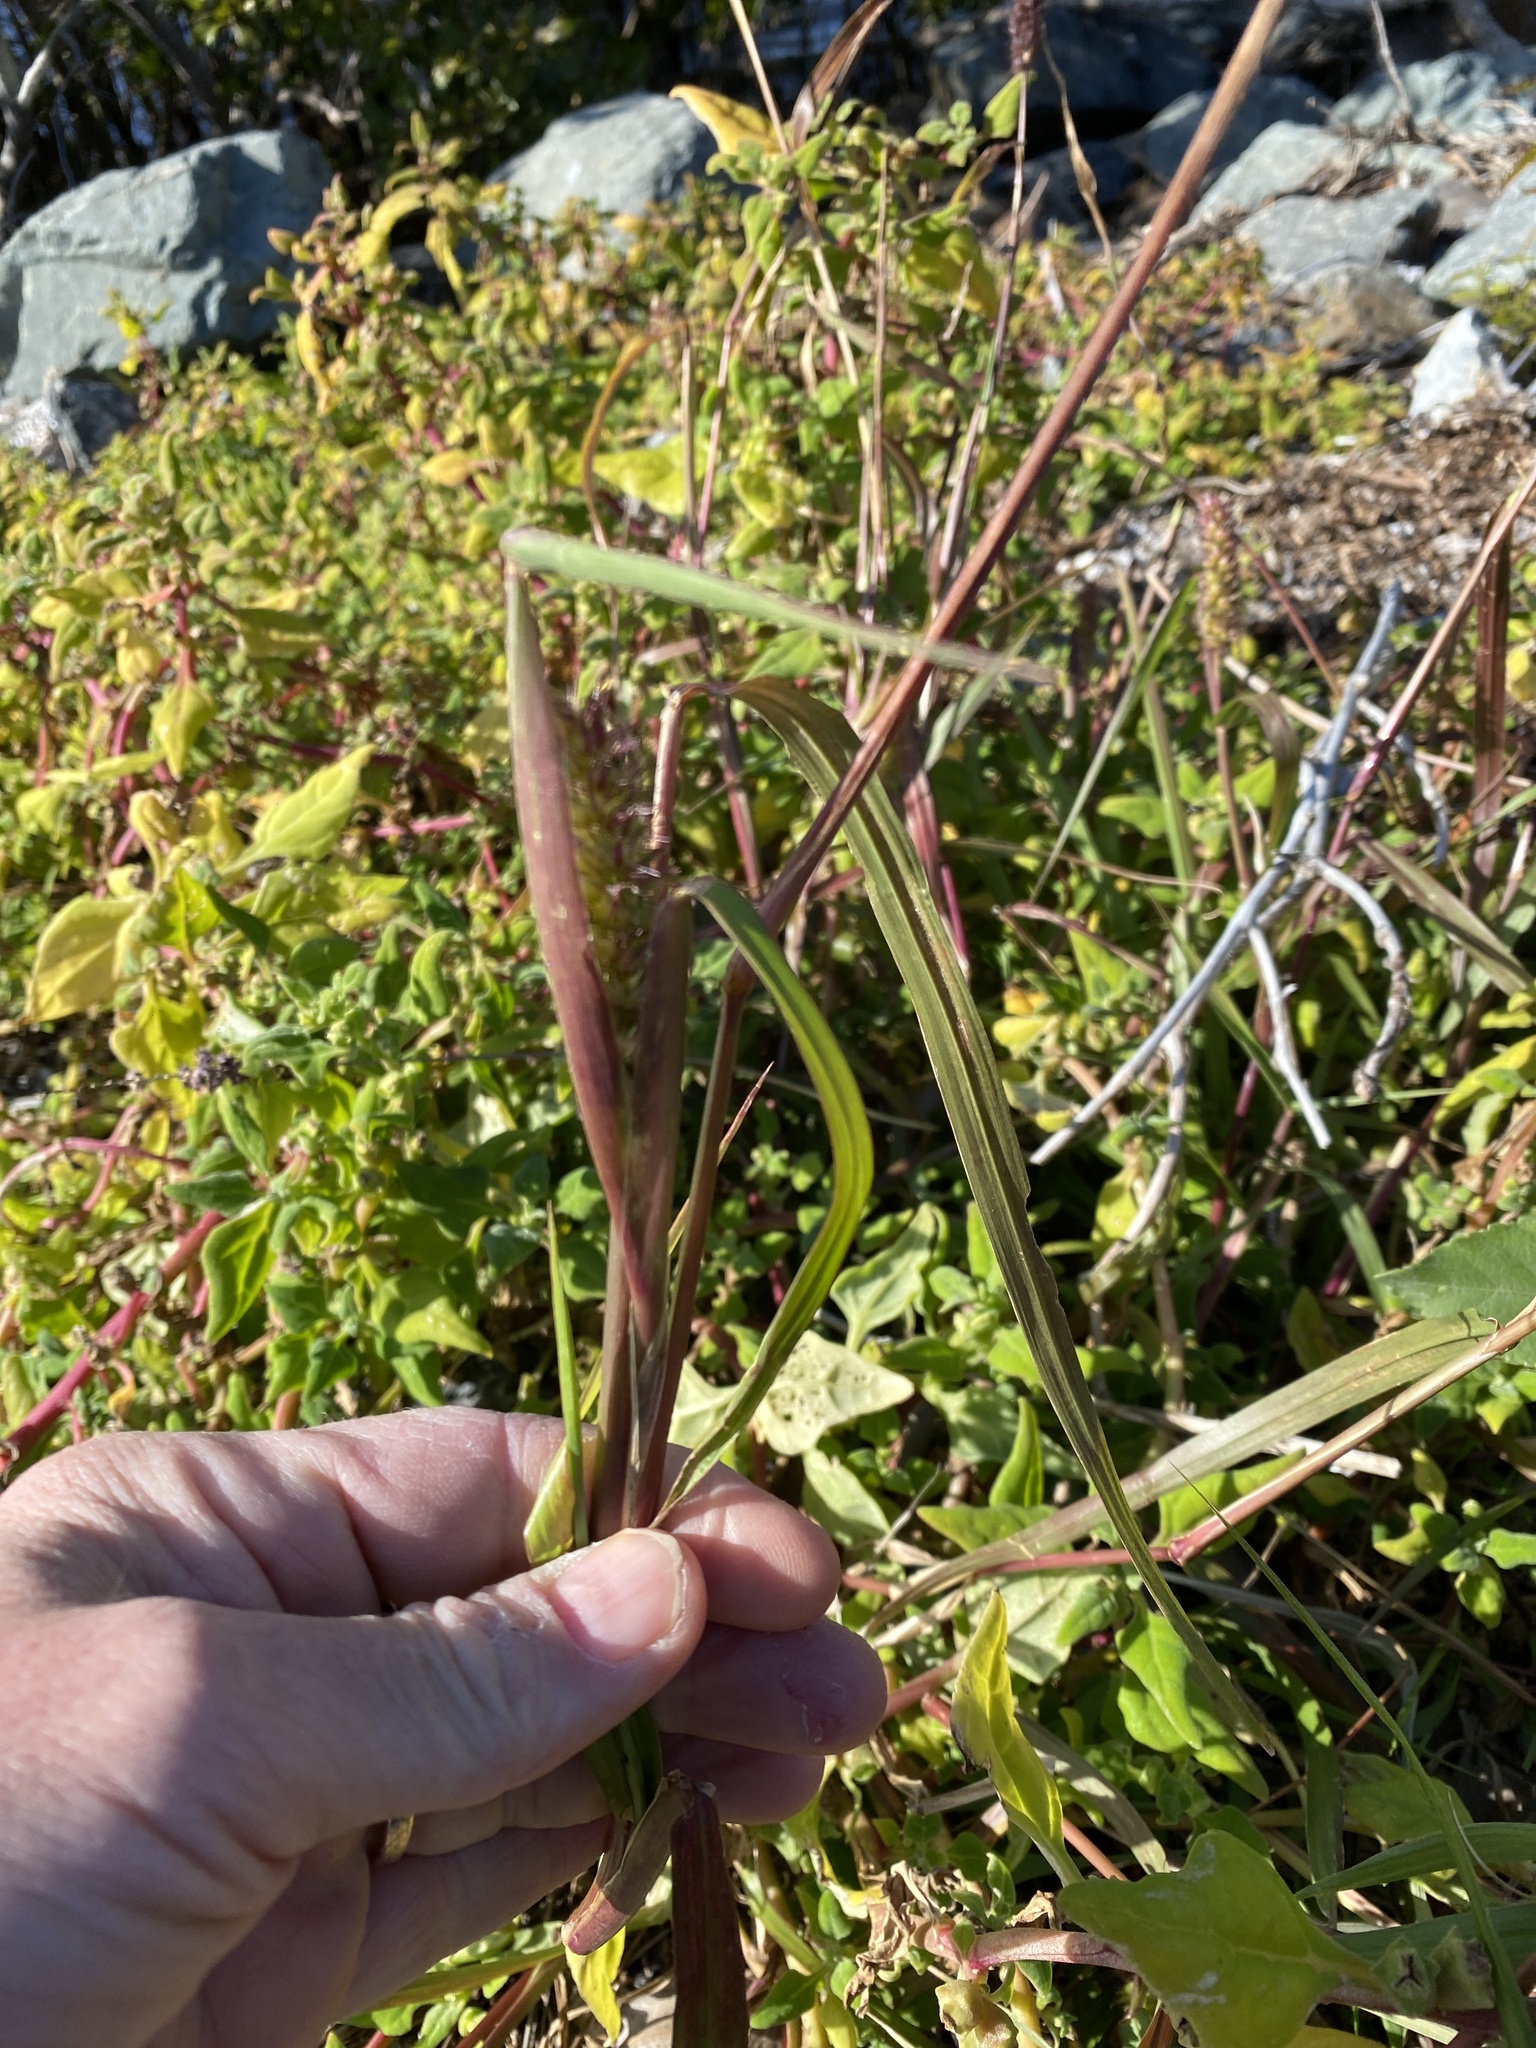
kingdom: Plantae
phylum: Tracheophyta
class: Liliopsida
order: Poales
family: Poaceae
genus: Cenchrus
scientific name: Cenchrus echinatus
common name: Southern sandbur
